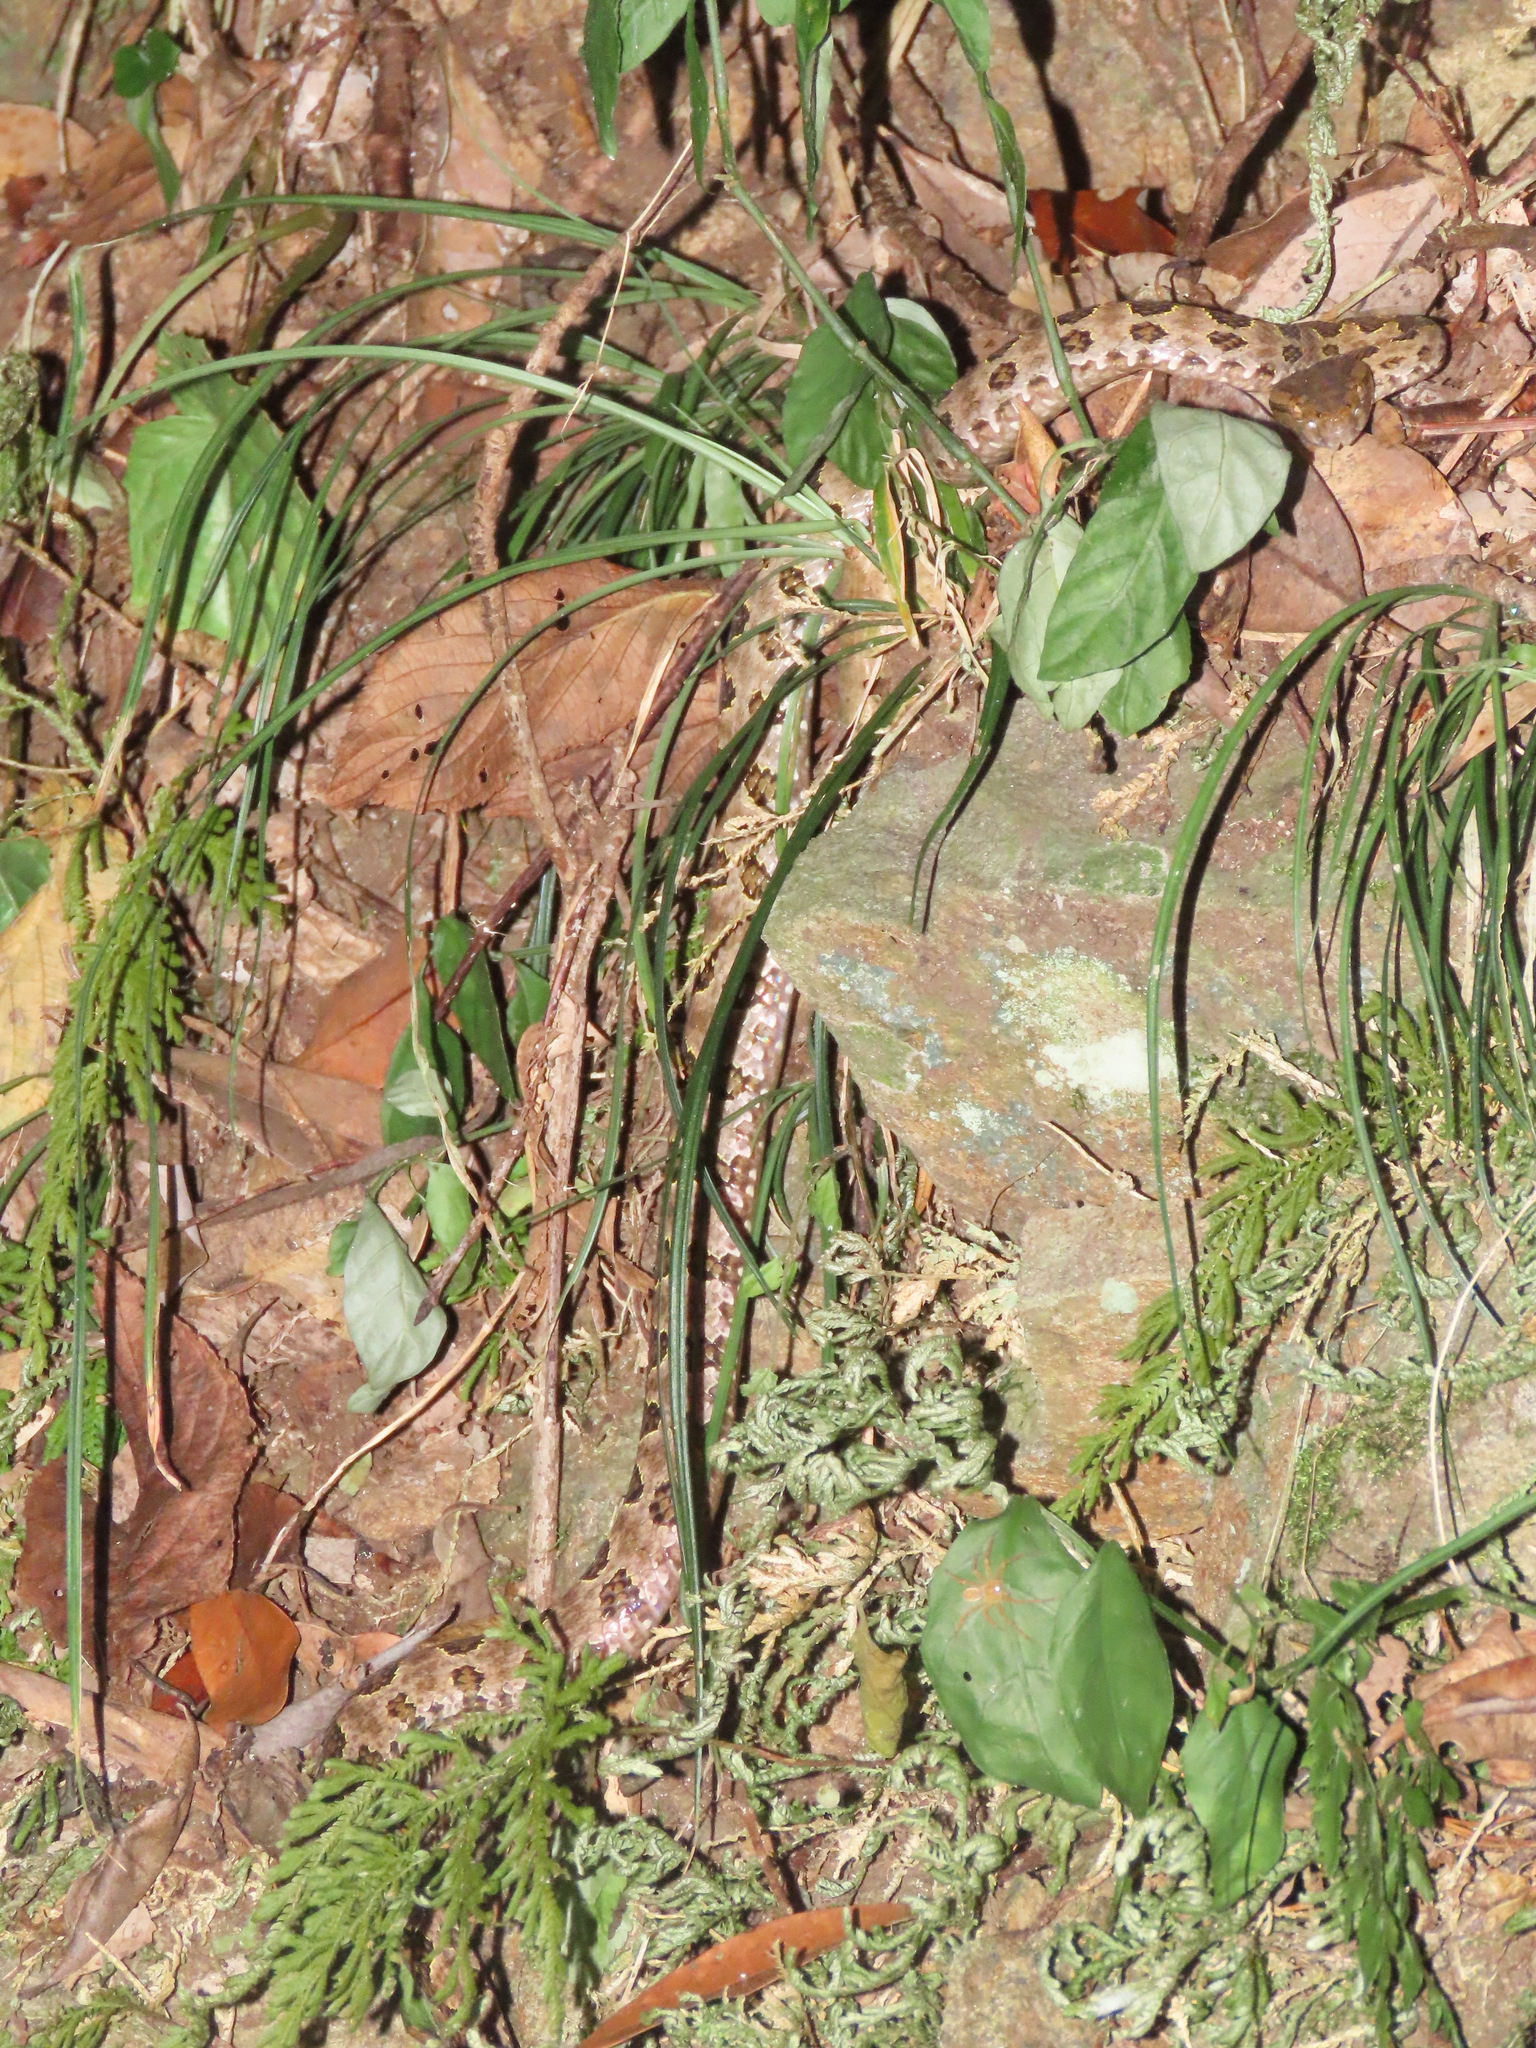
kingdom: Animalia
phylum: Chordata
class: Squamata
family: Viperidae
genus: Protobothrops
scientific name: Protobothrops mucrosquamatus
